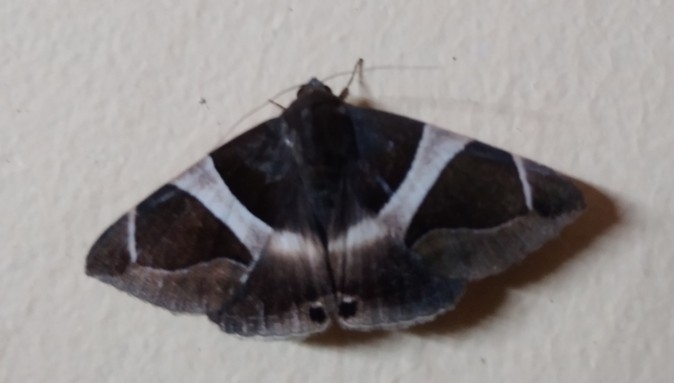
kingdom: Animalia
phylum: Arthropoda
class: Insecta
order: Lepidoptera
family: Erebidae
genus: Bastilla
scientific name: Bastilla crameri
